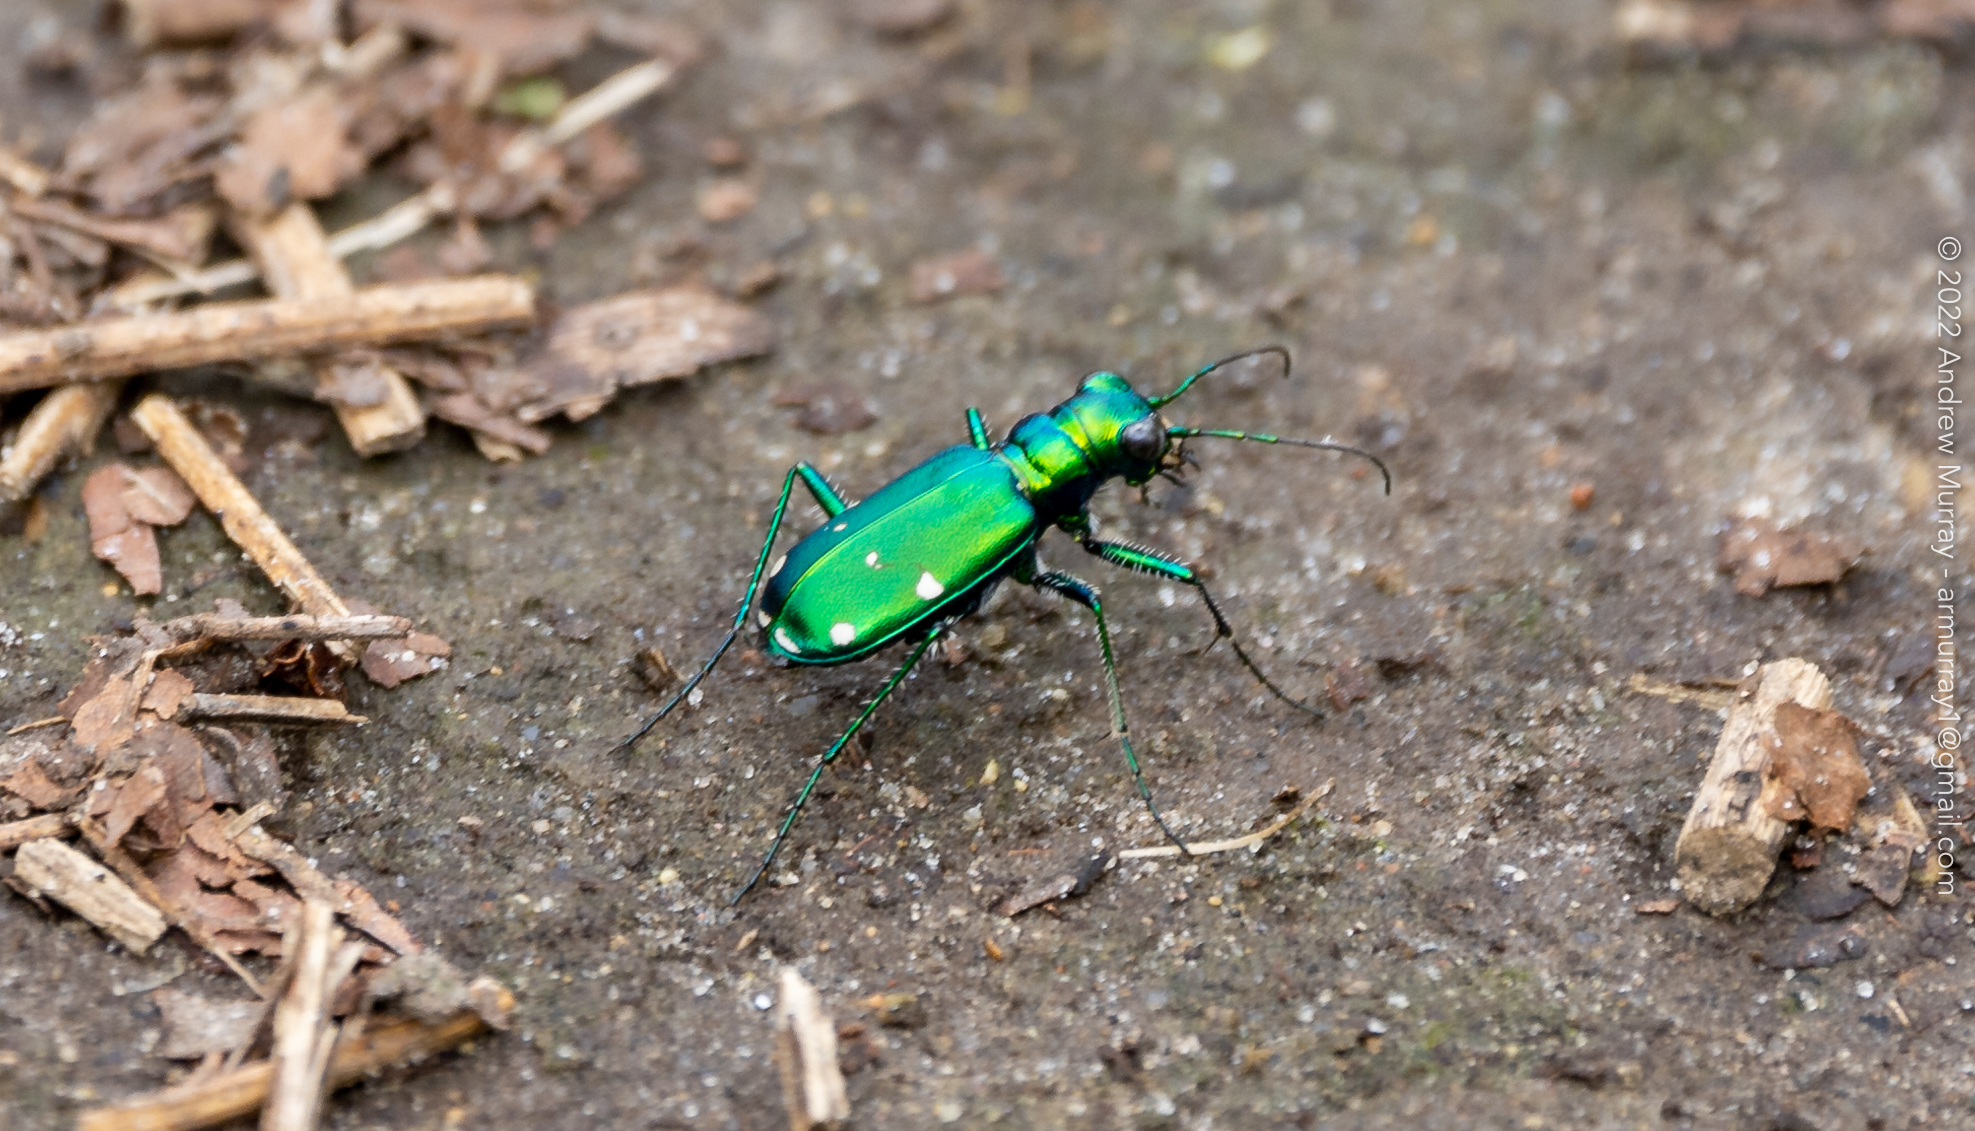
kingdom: Animalia
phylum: Arthropoda
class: Insecta
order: Coleoptera
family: Carabidae
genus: Cicindela
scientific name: Cicindela sexguttata
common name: Six-spotted tiger beetle
